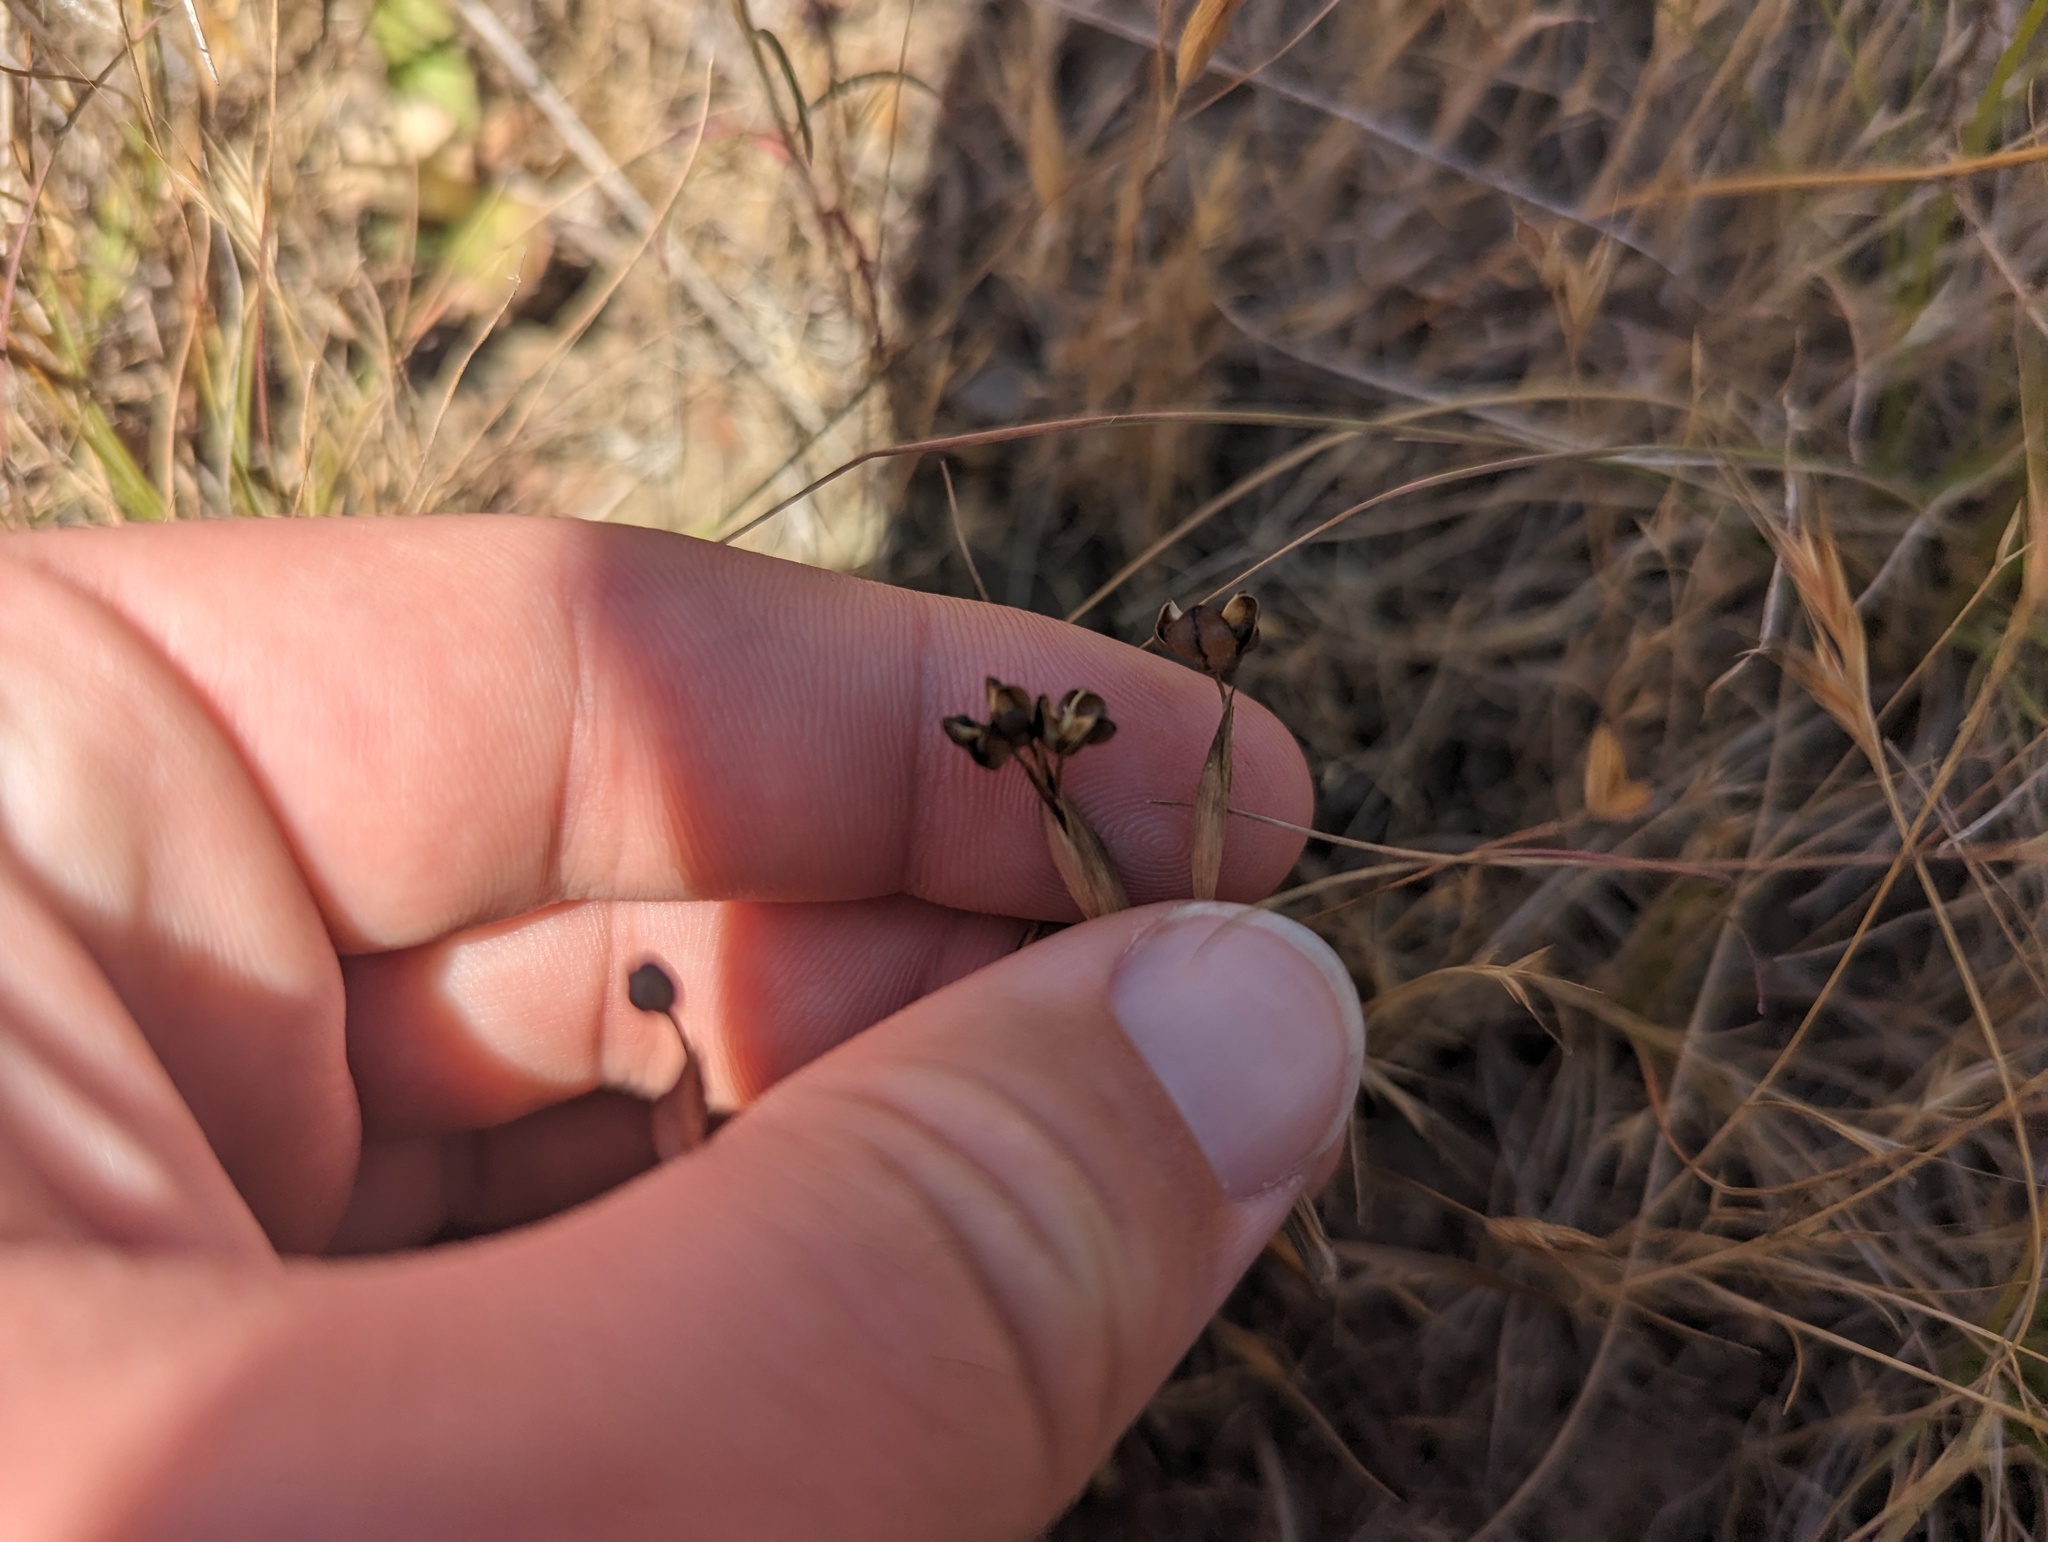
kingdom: Plantae
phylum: Tracheophyta
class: Liliopsida
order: Asparagales
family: Iridaceae
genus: Sisyrinchium
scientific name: Sisyrinchium bellum
